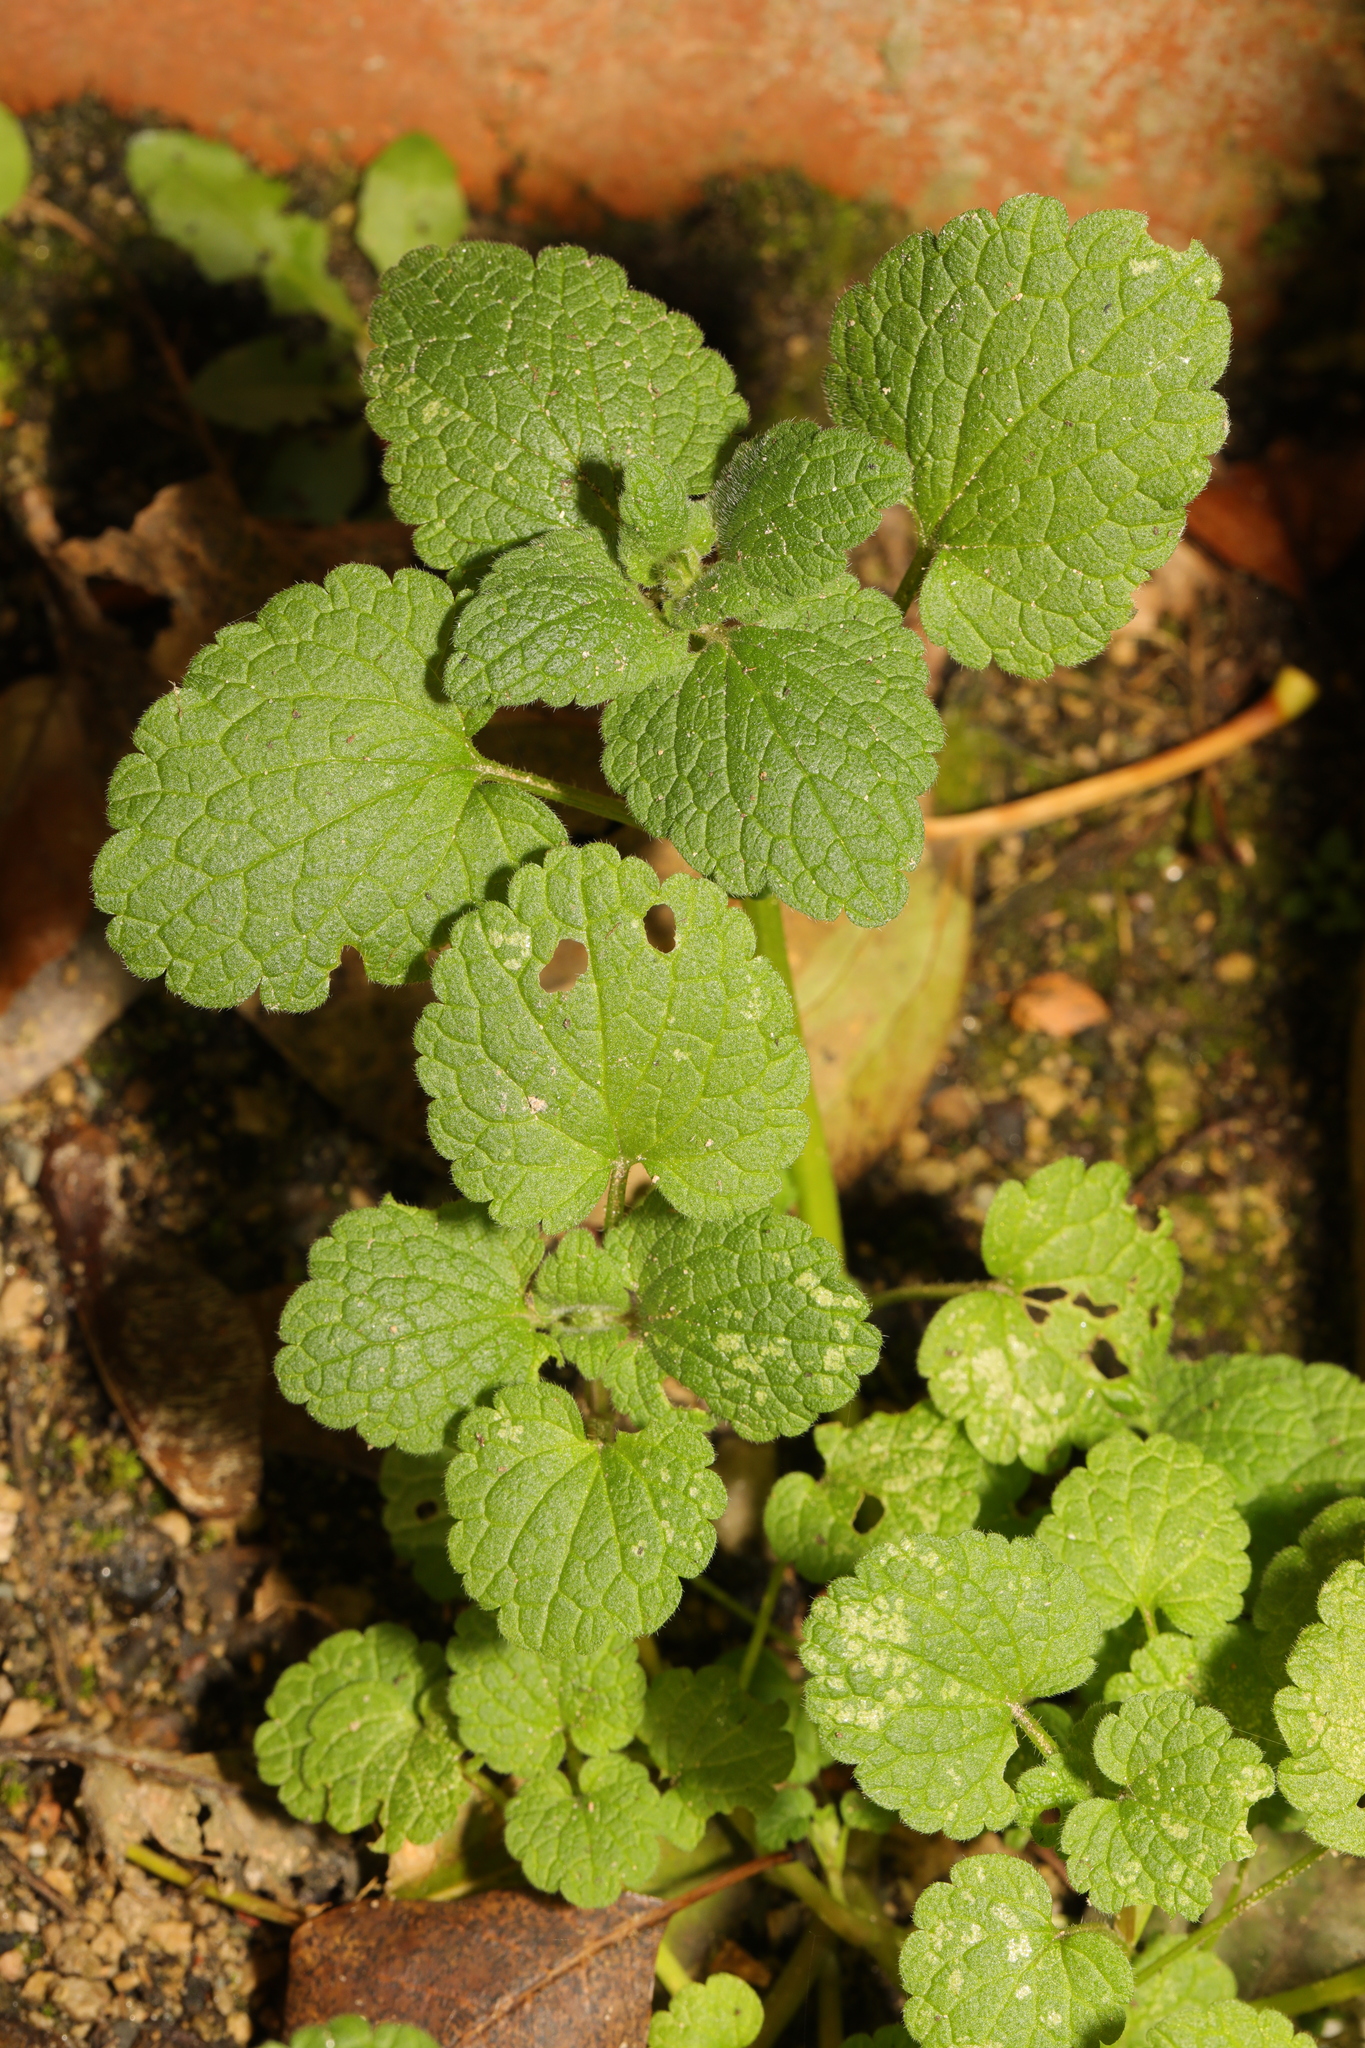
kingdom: Plantae
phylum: Tracheophyta
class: Magnoliopsida
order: Lamiales
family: Lamiaceae
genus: Lamium
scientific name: Lamium purpureum
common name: Red dead-nettle
